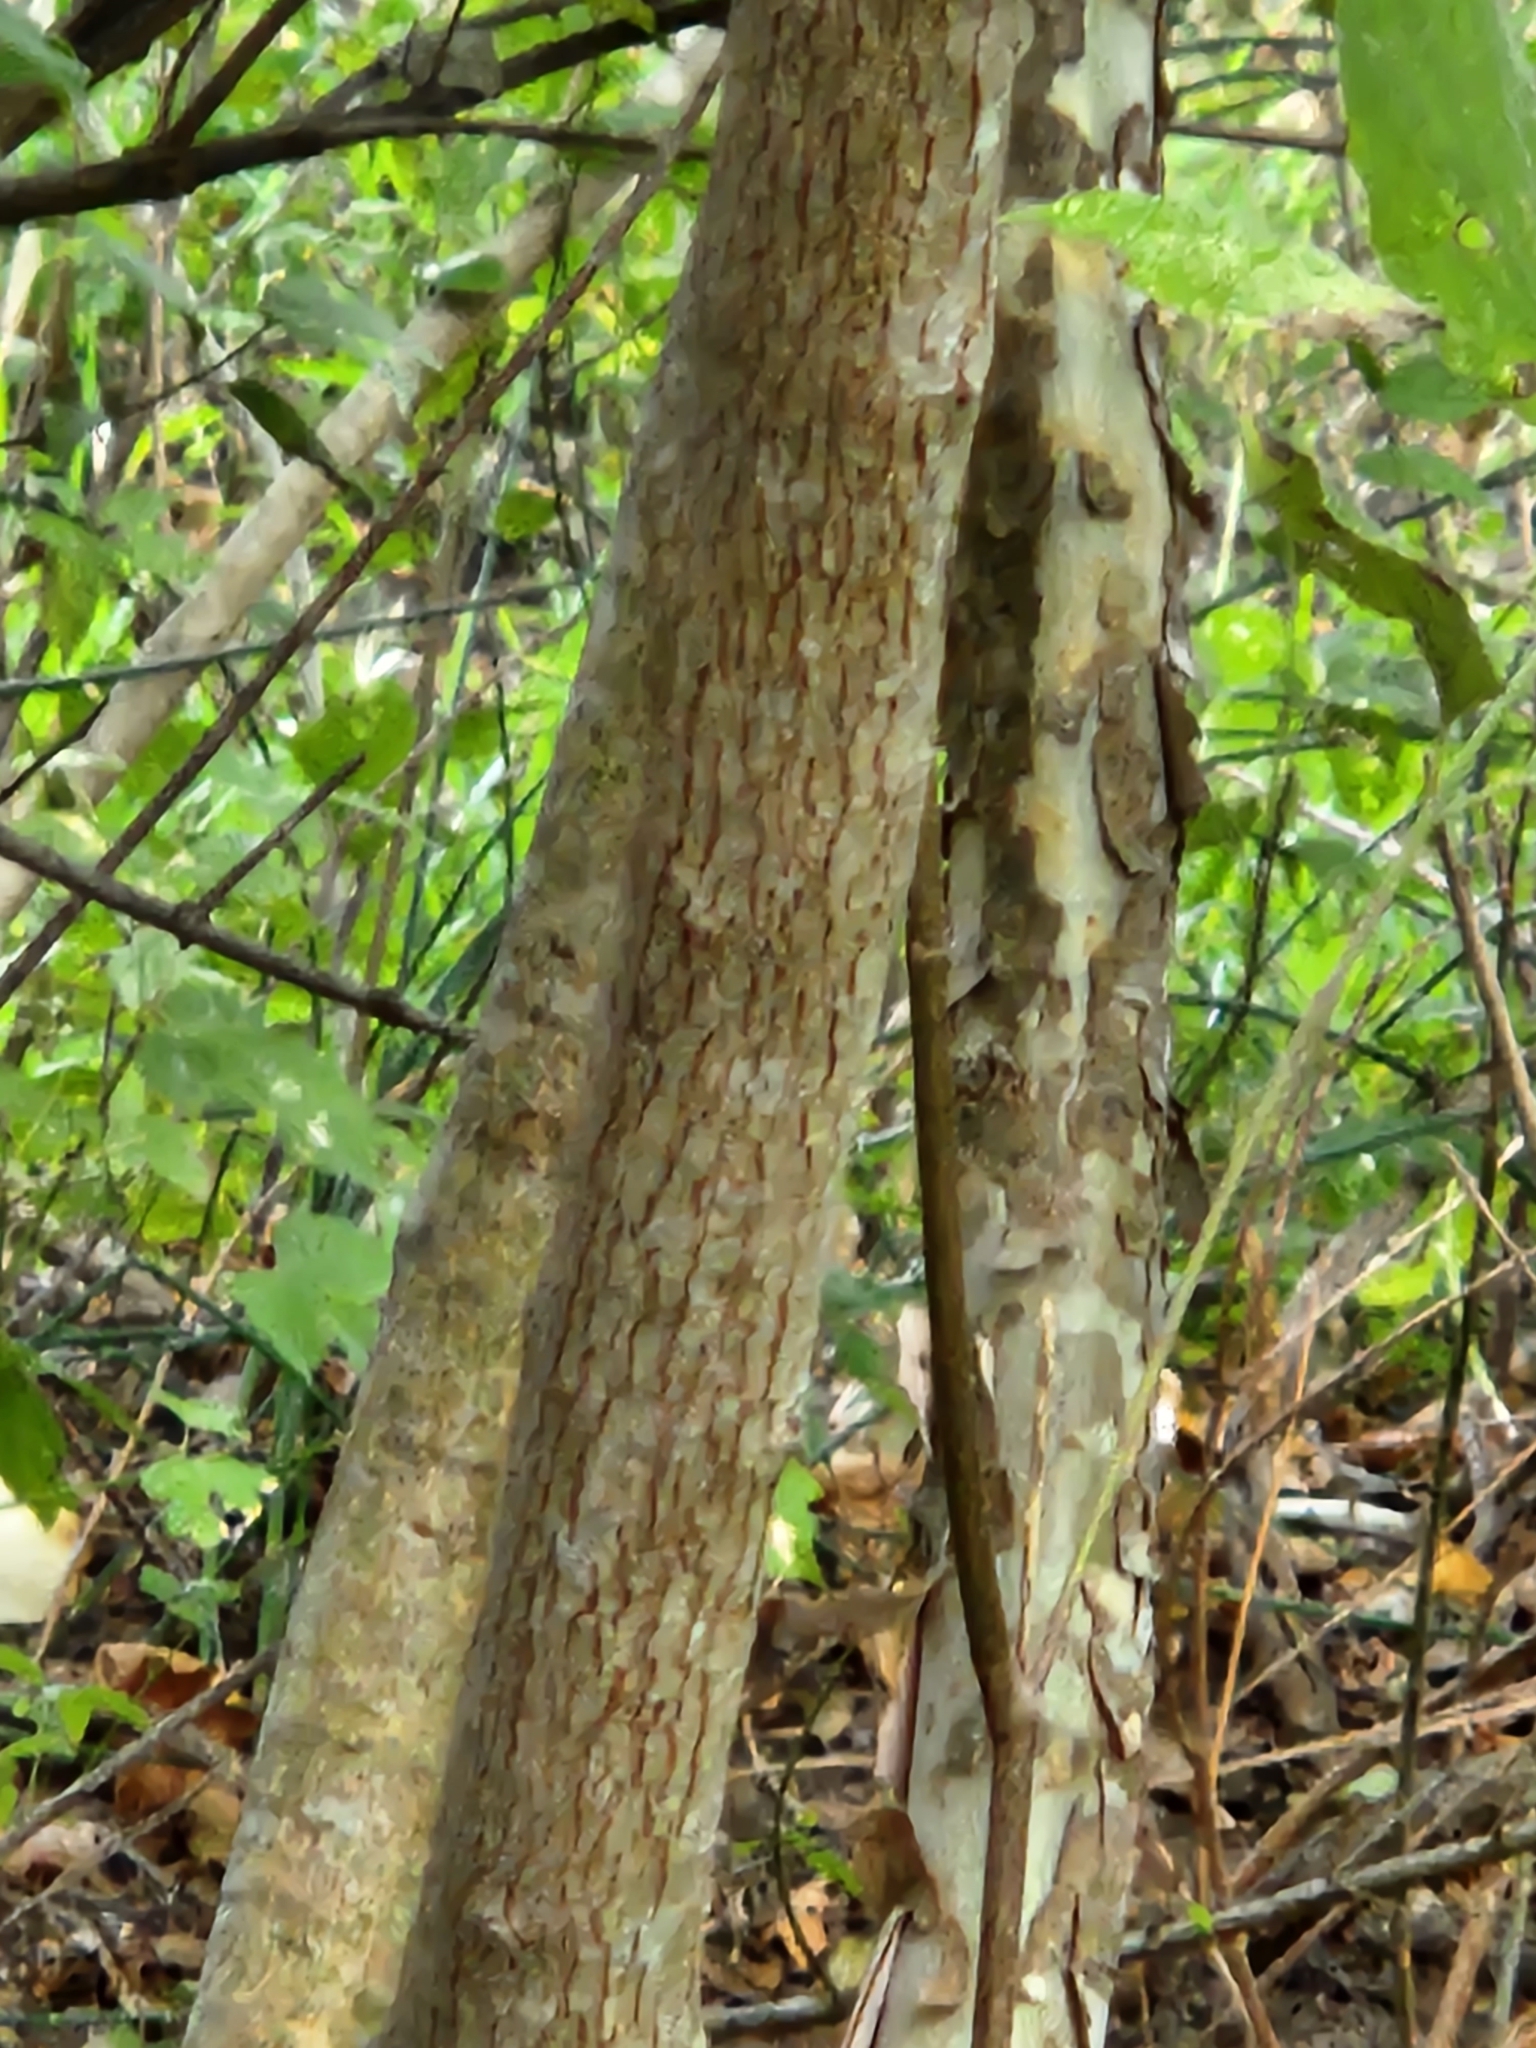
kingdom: Plantae
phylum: Tracheophyta
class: Magnoliopsida
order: Cornales
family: Cornaceae
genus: Cornus
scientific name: Cornus drummondii
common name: Rough-leaf dogwood
